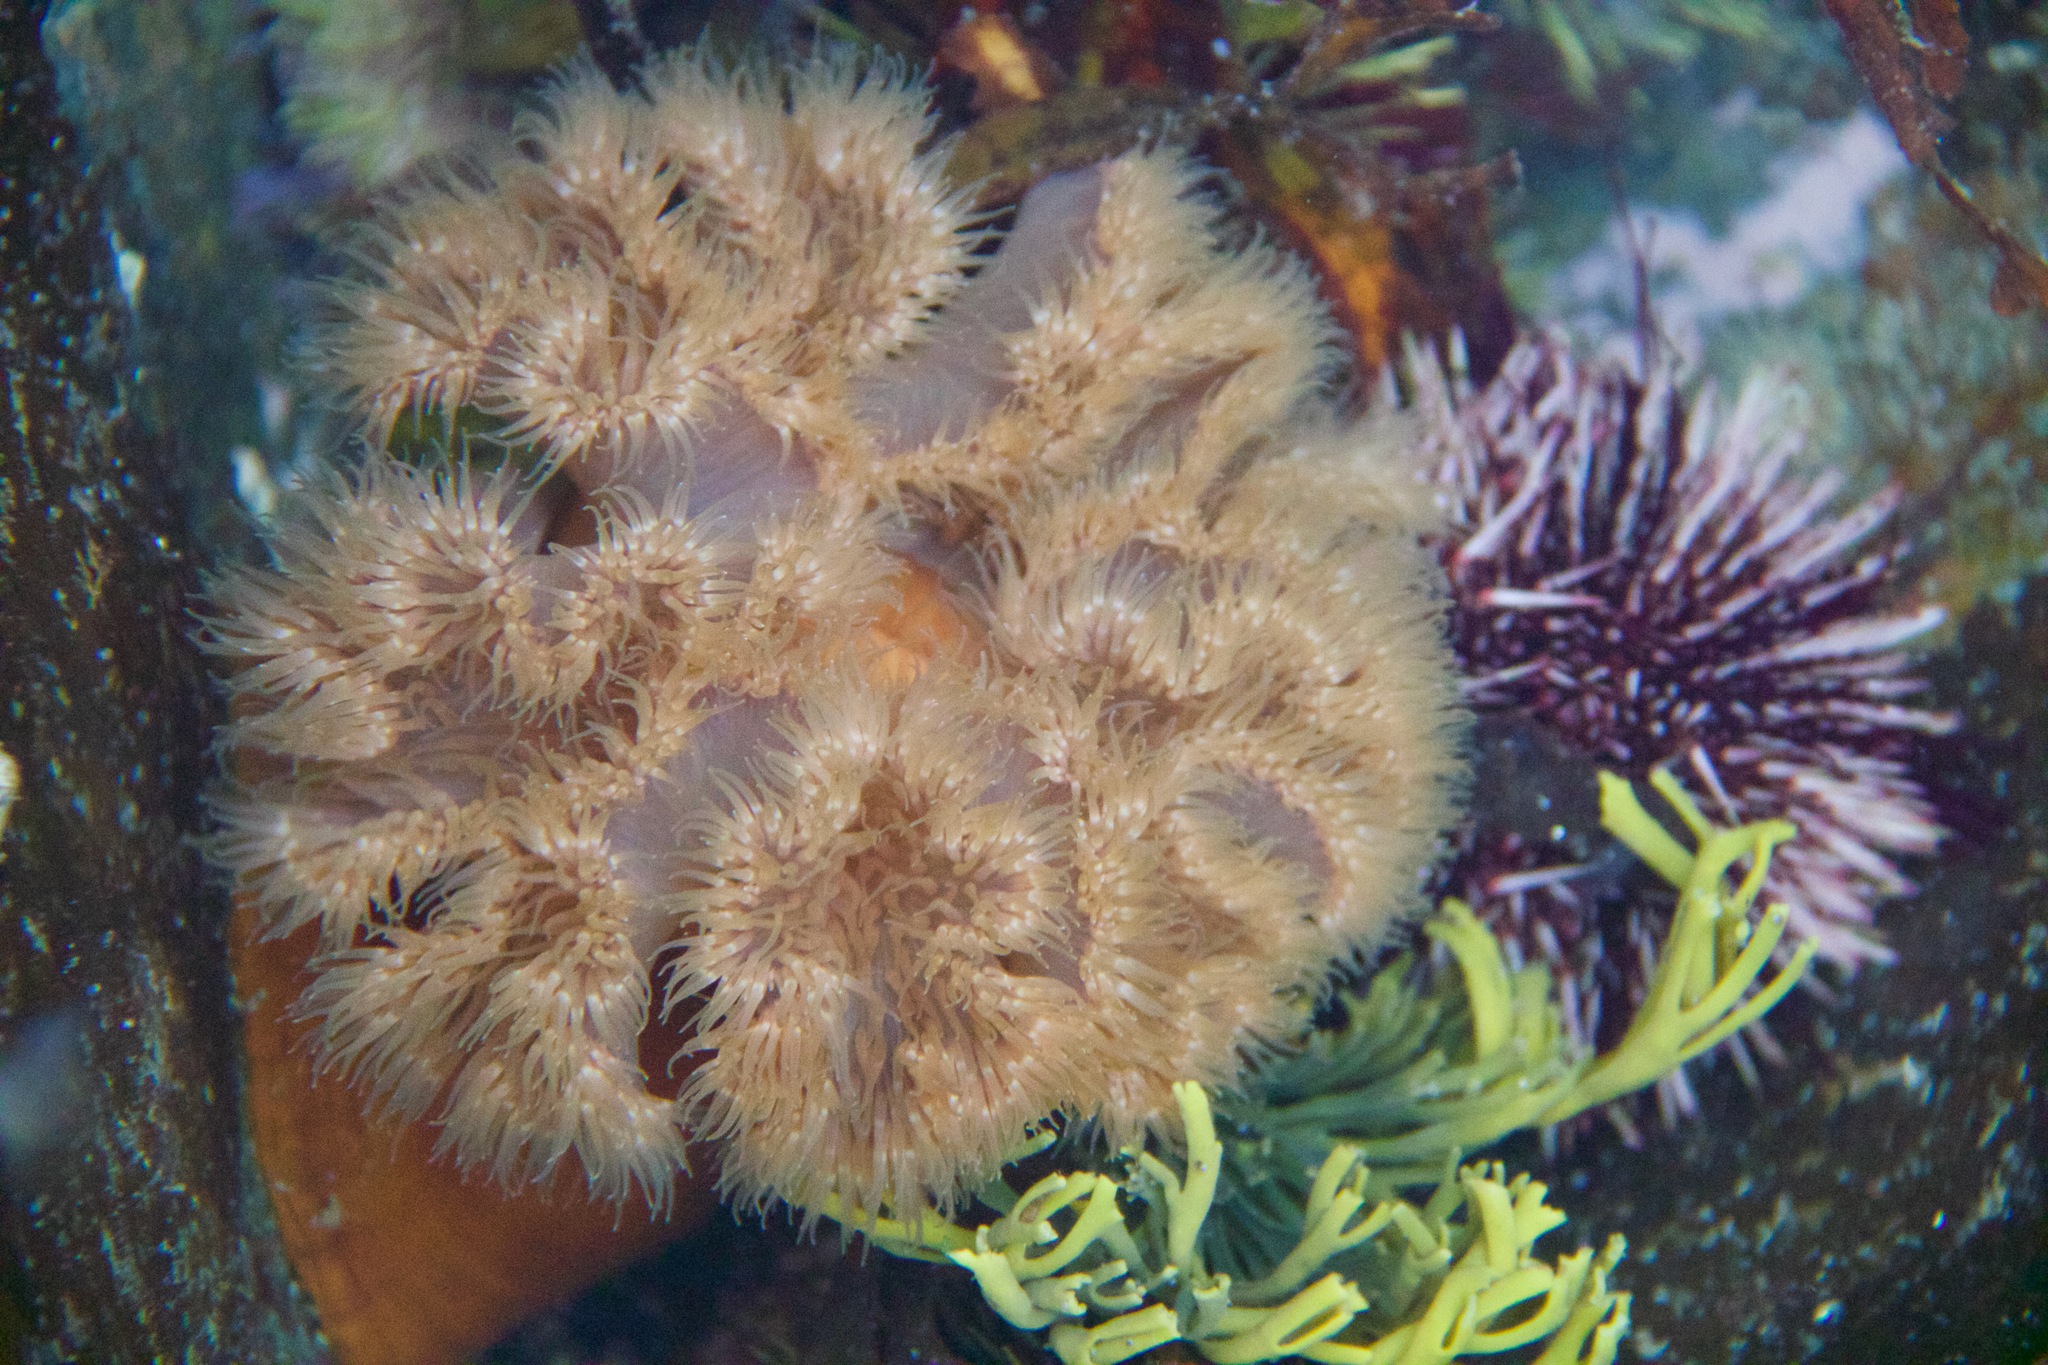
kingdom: Animalia
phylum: Cnidaria
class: Anthozoa
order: Actiniaria
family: Metridiidae
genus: Metridium
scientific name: Metridium senile
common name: Clonal plumose anemone
